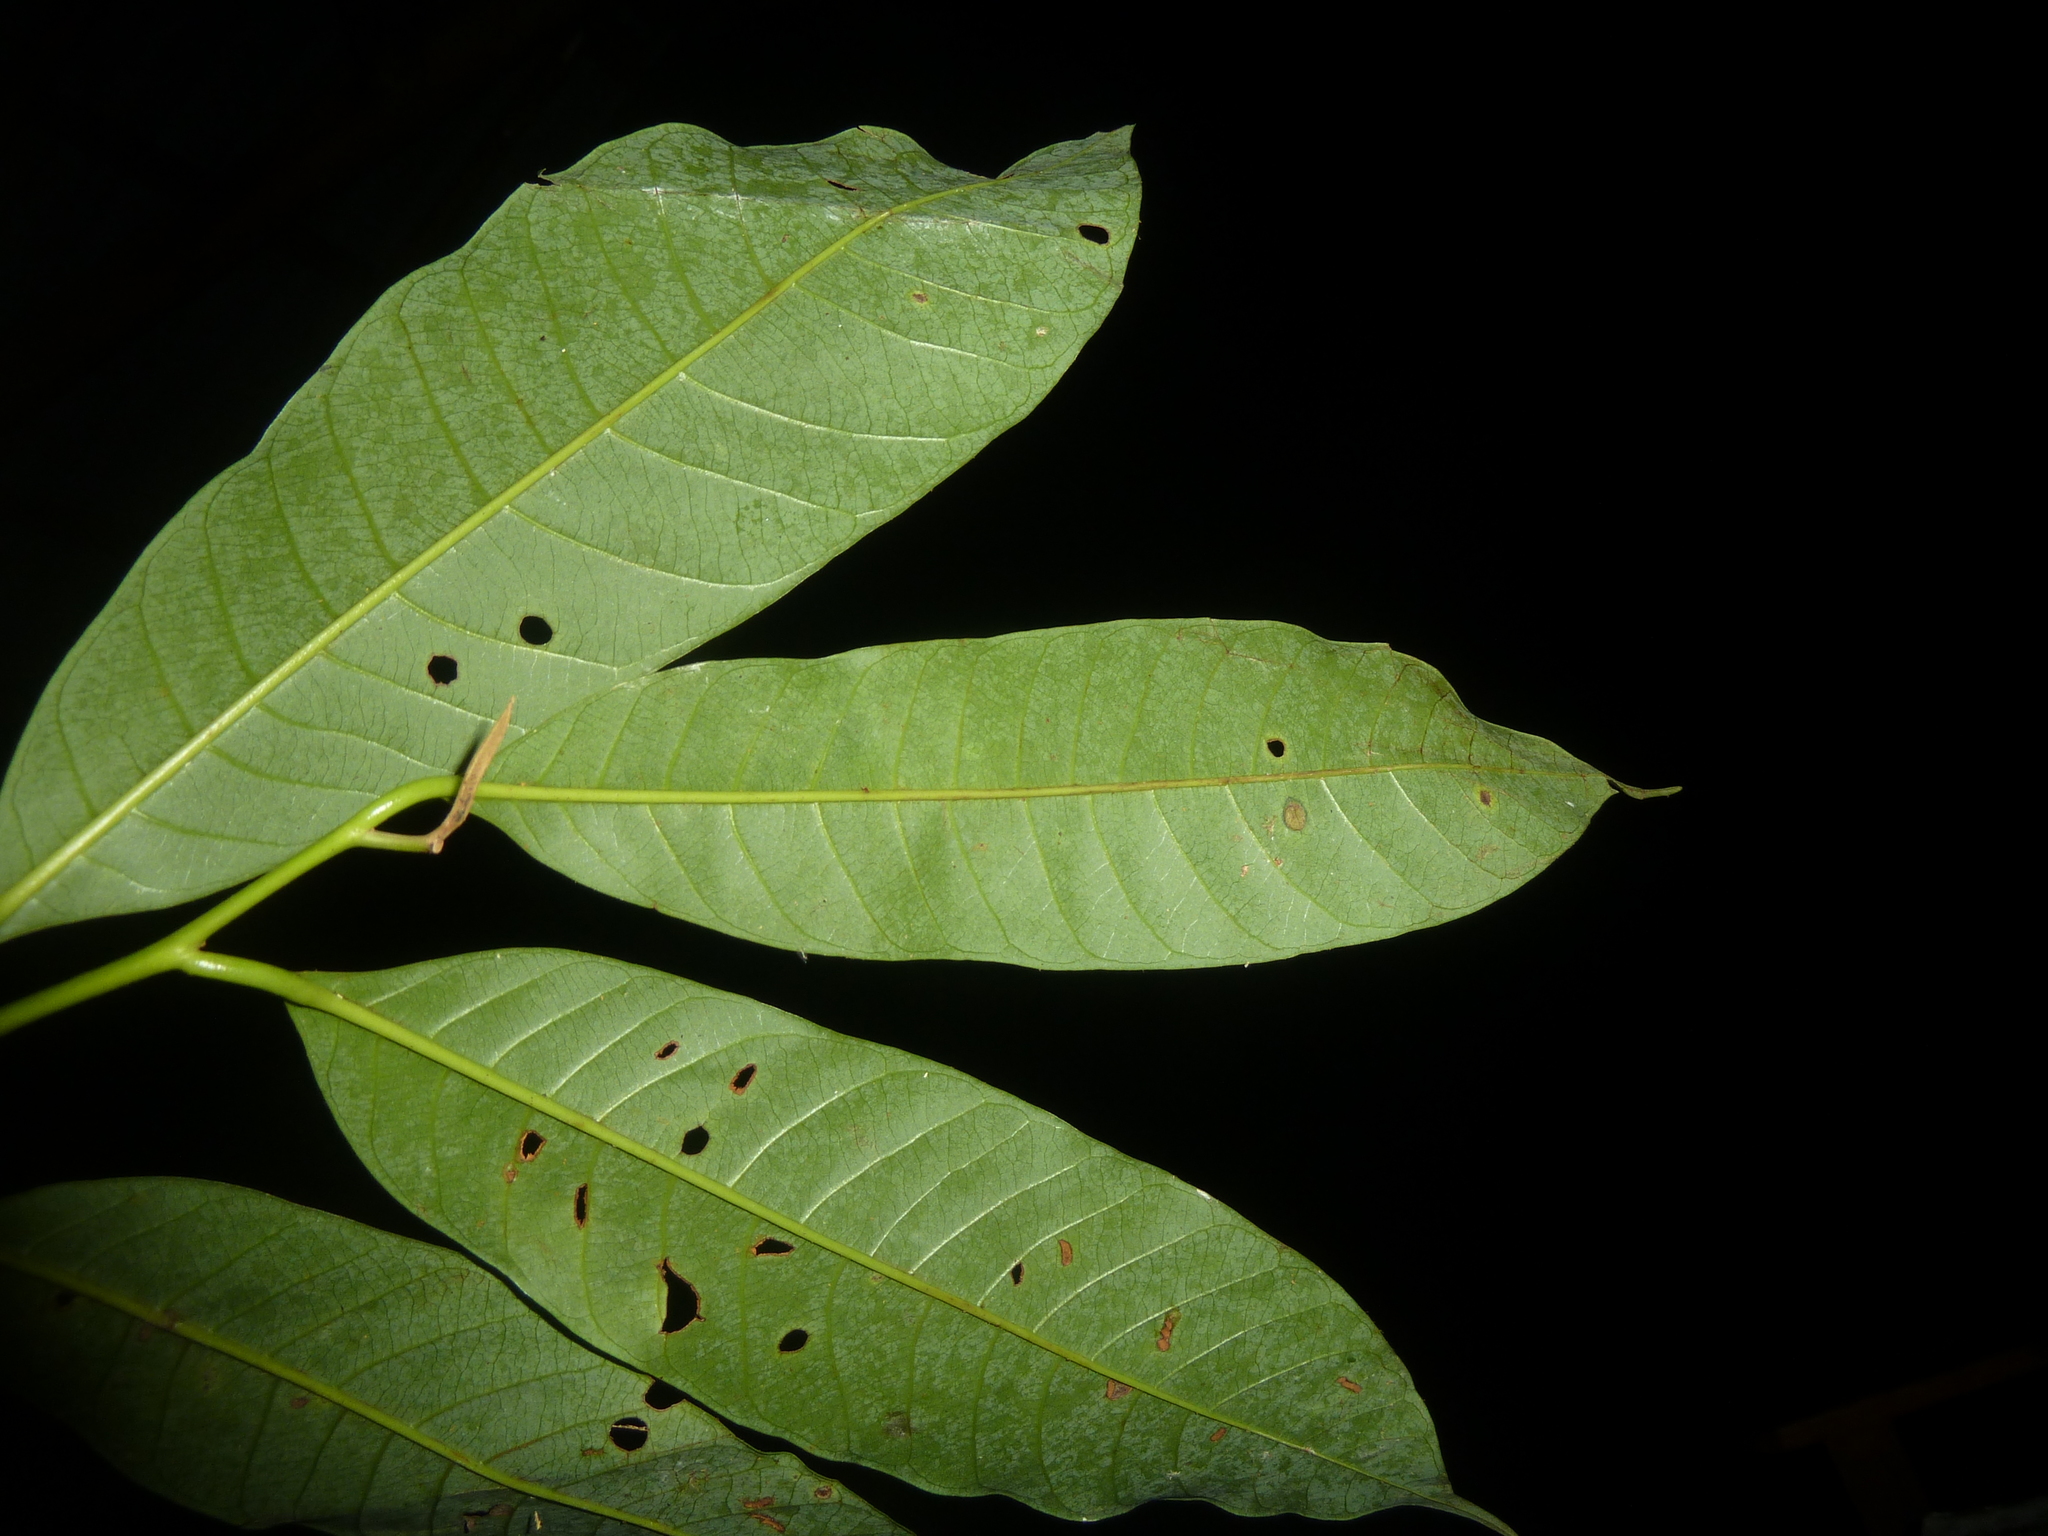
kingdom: Plantae
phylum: Tracheophyta
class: Magnoliopsida
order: Magnoliales
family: Myristicaceae
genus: Virola
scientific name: Virola guatemalensis
